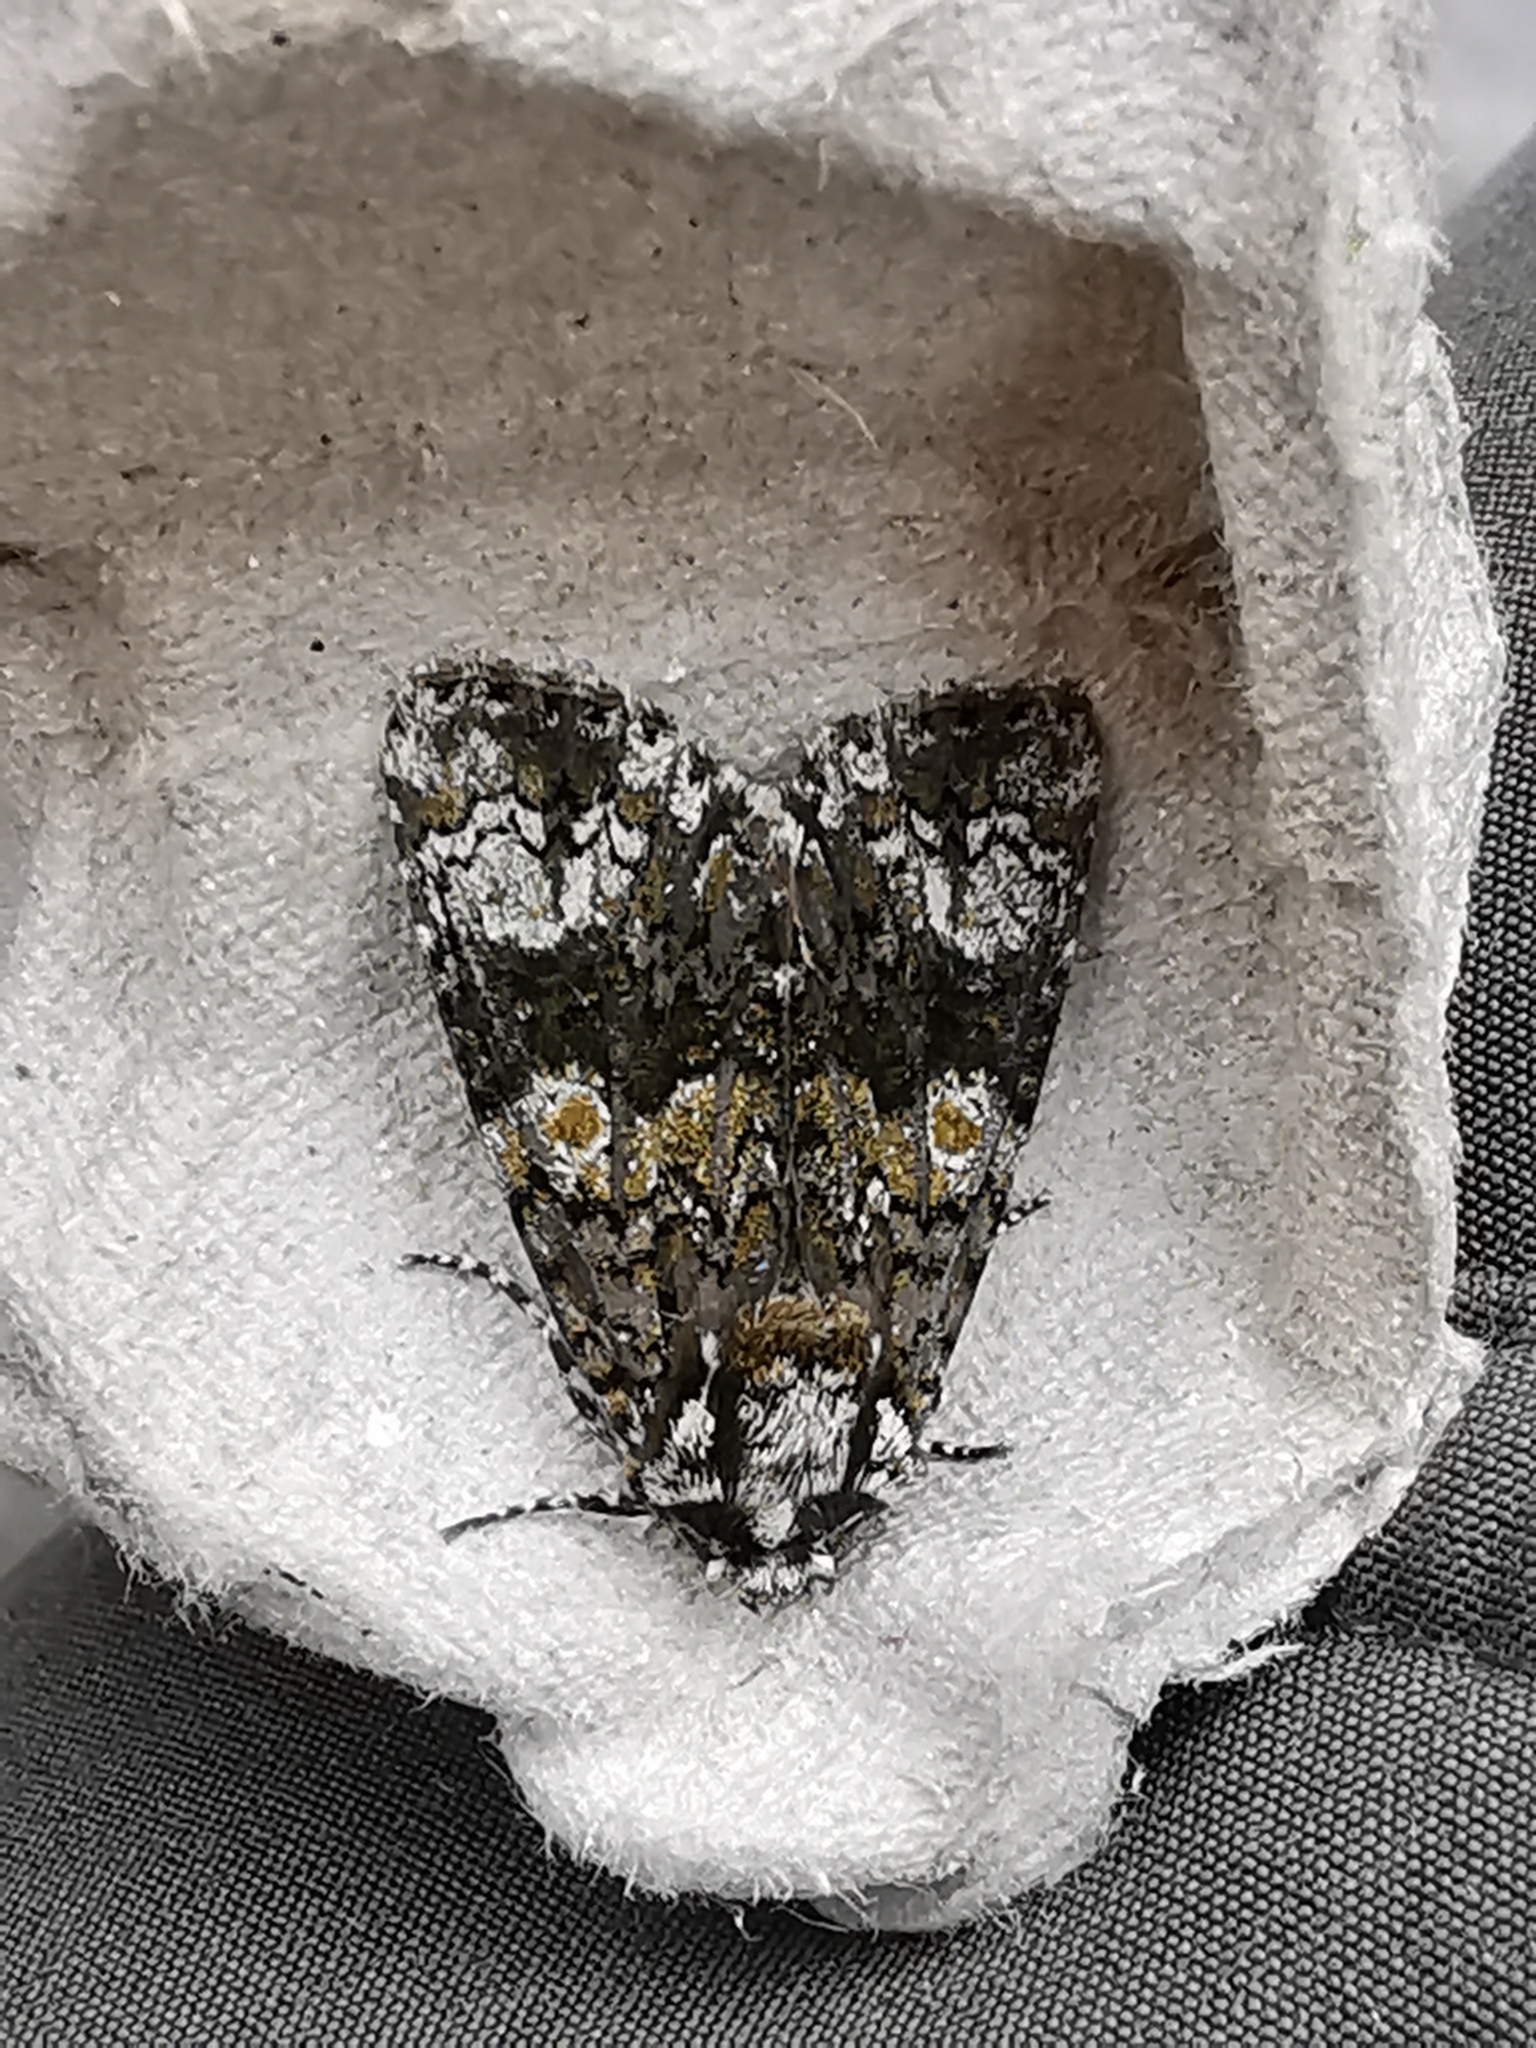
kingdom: Animalia
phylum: Arthropoda
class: Insecta
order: Lepidoptera
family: Noctuidae
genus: Craniophora
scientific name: Craniophora ligustri
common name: Coronet
